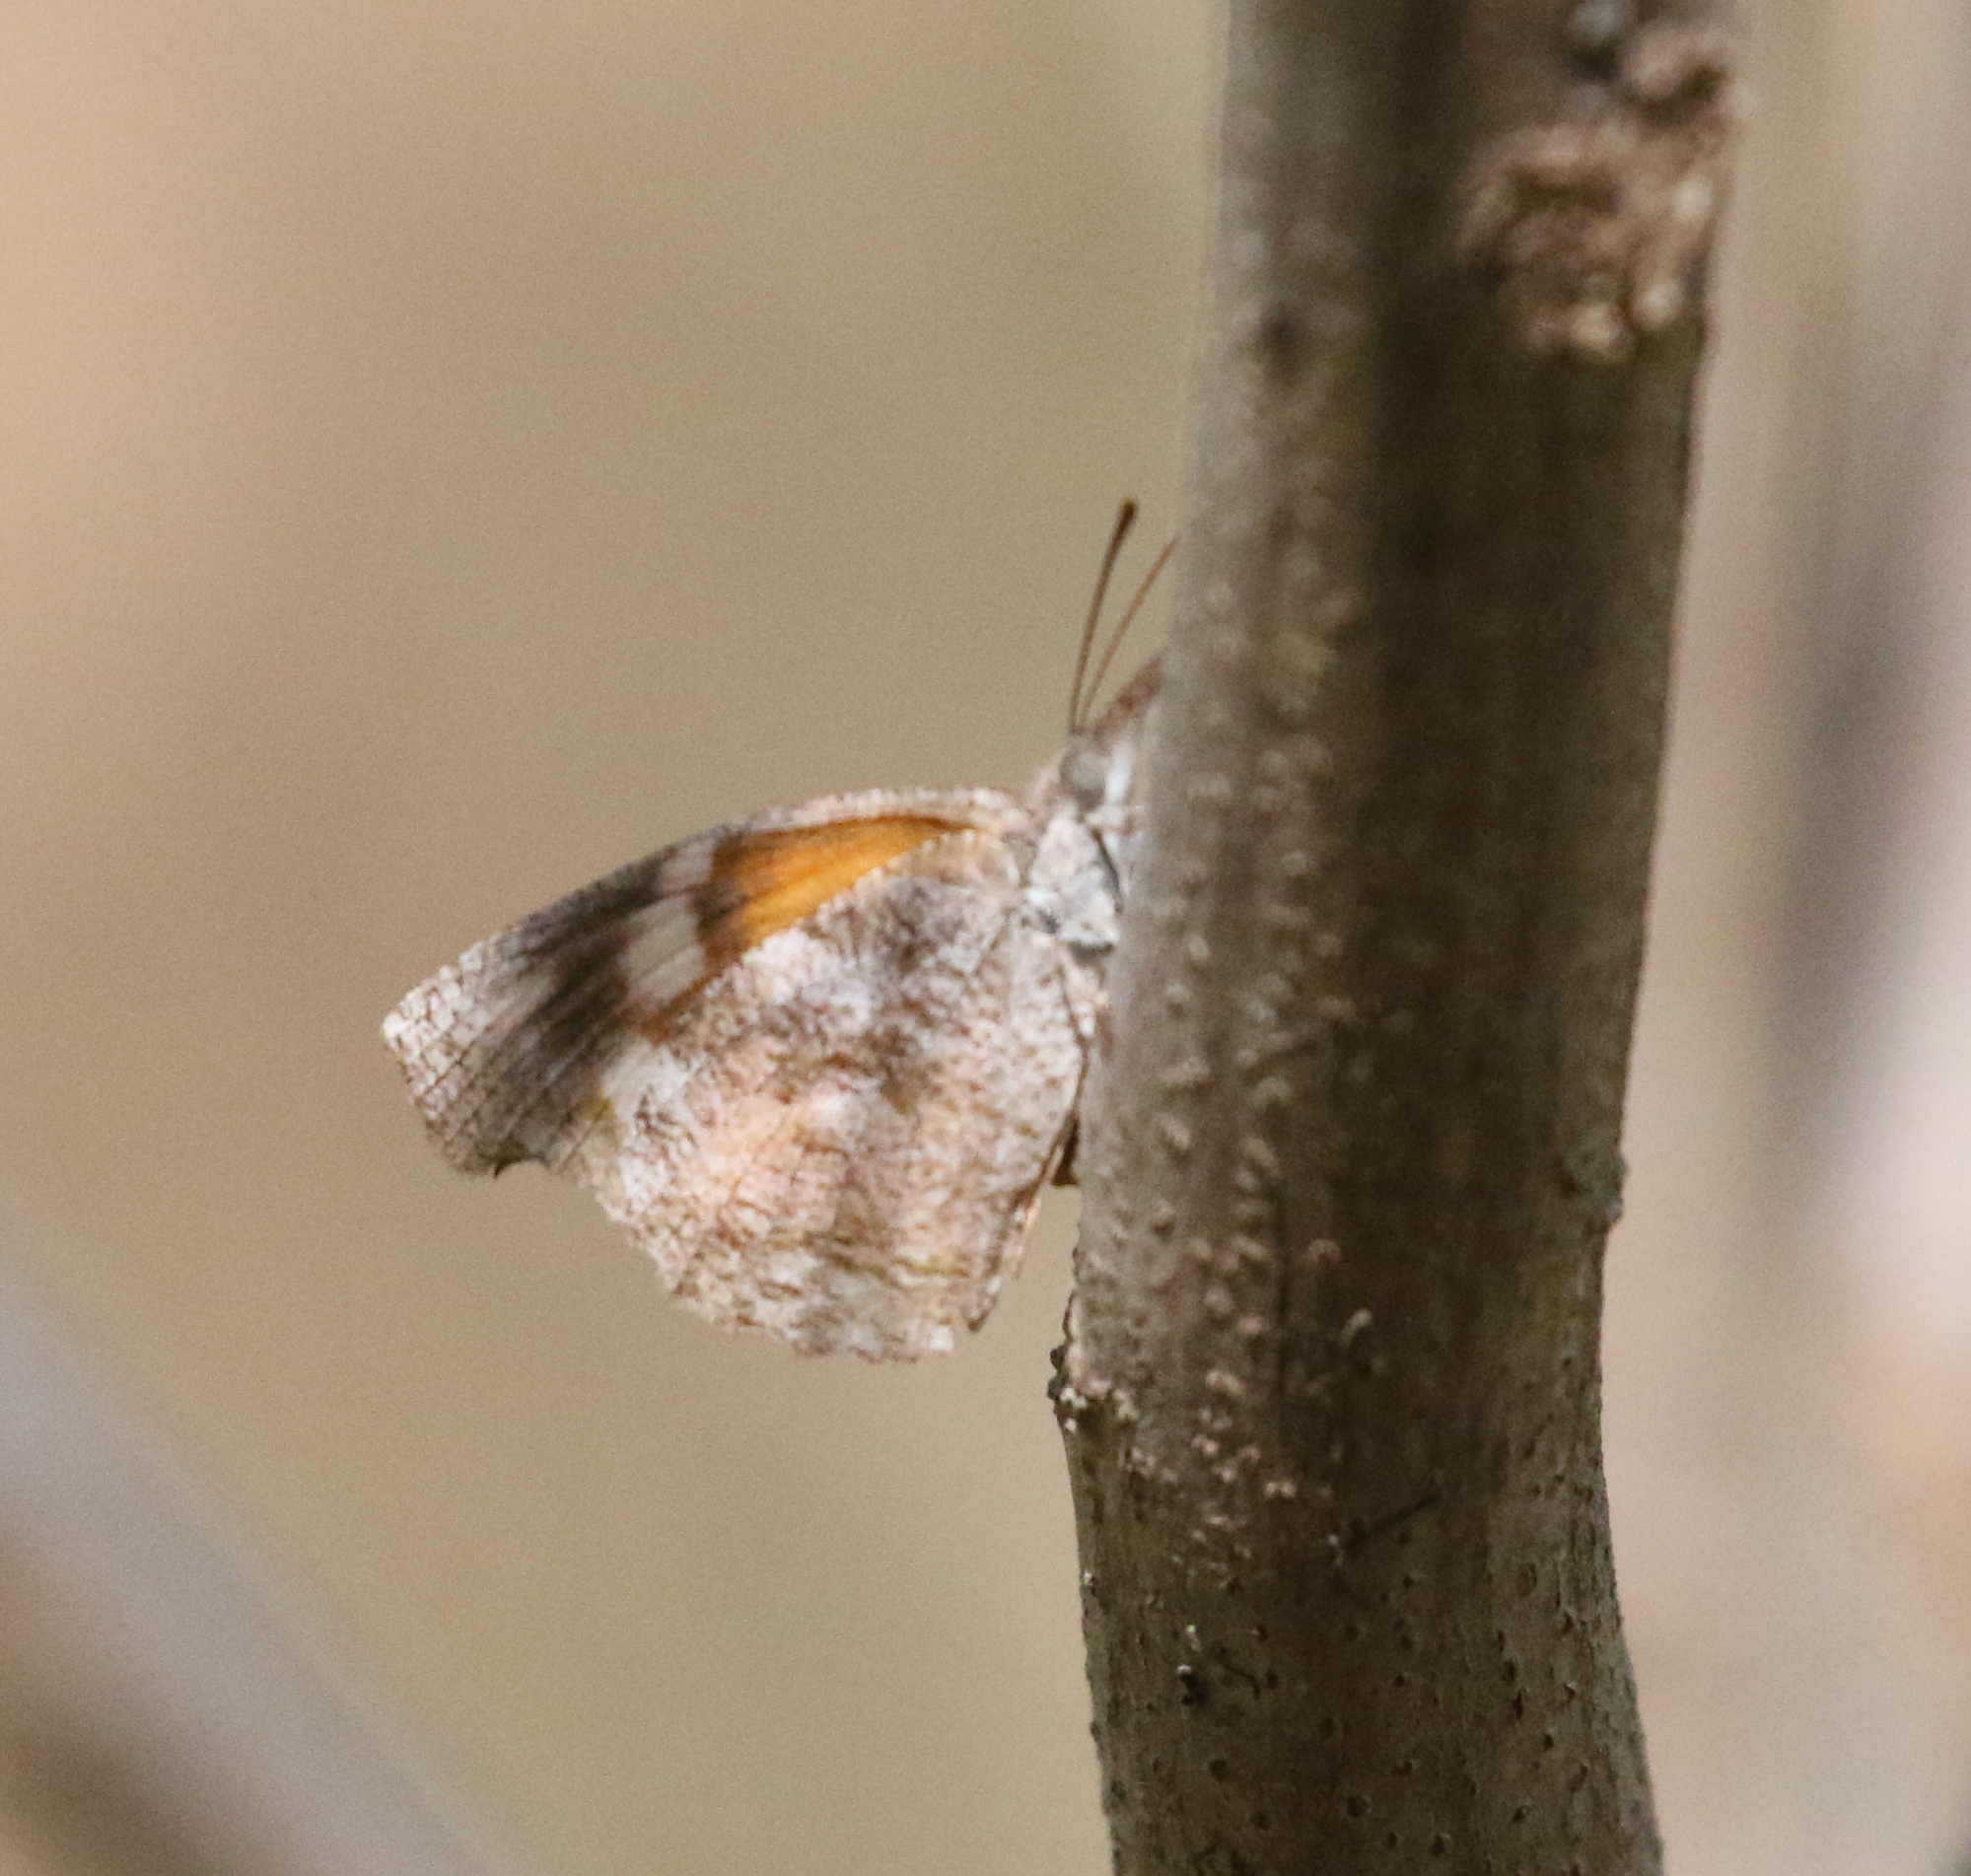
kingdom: Animalia
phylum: Arthropoda
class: Insecta
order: Lepidoptera
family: Nymphalidae
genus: Libytheana
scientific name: Libytheana carinenta
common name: American snout
